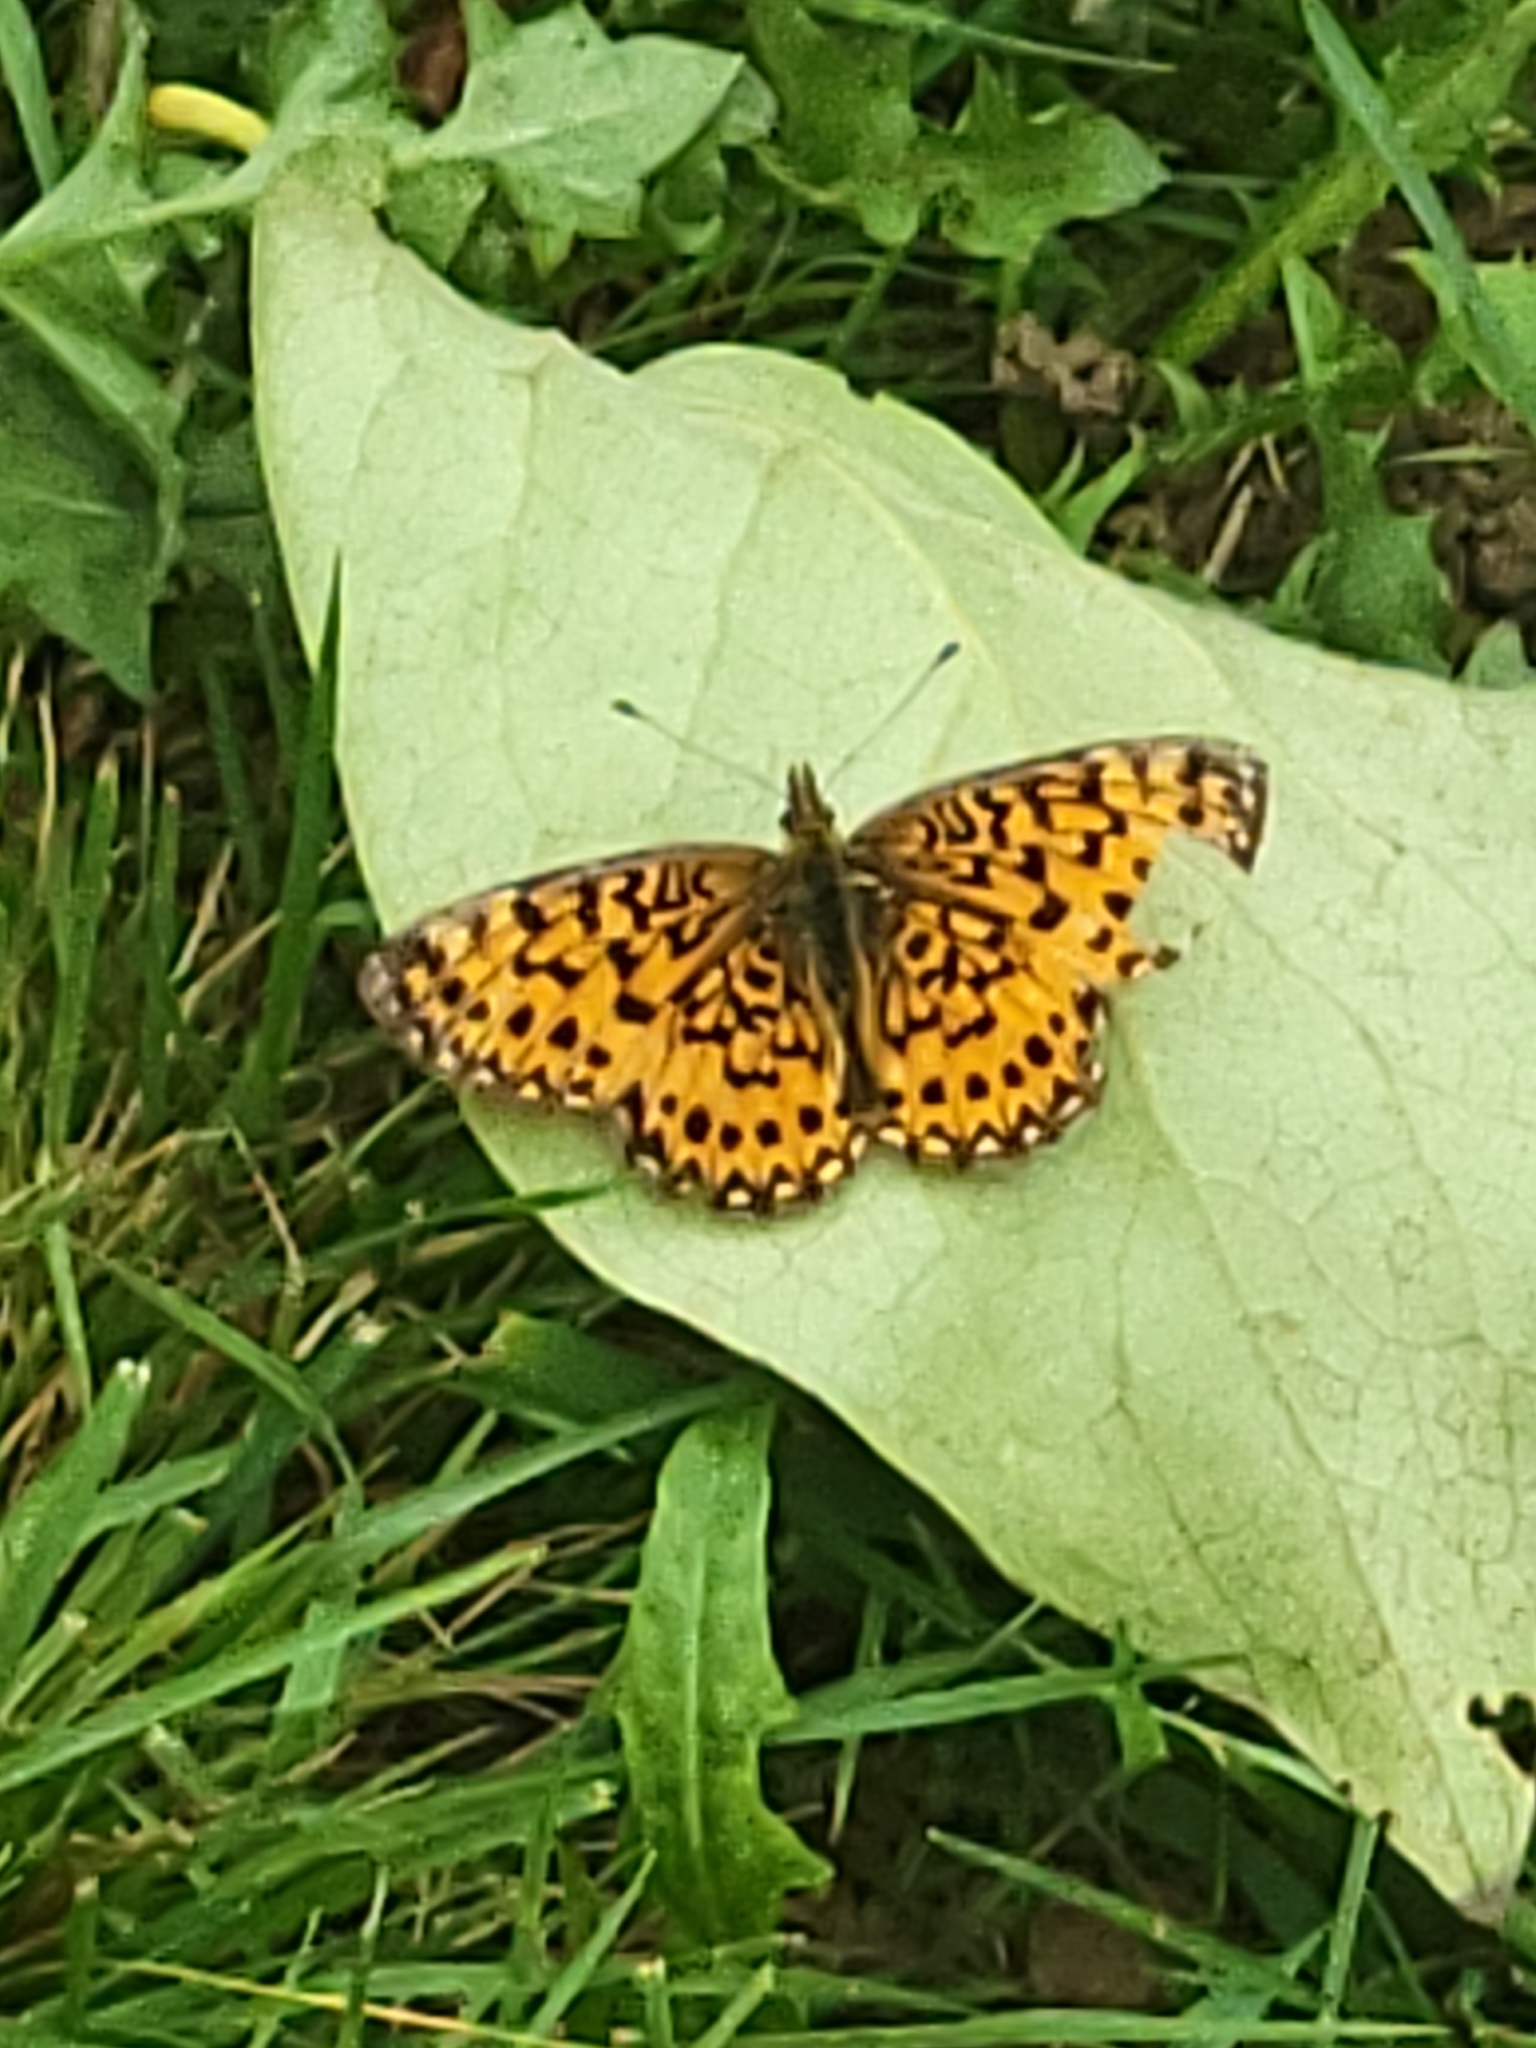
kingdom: Animalia
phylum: Arthropoda
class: Insecta
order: Lepidoptera
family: Nymphalidae
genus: Boloria
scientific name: Boloria
